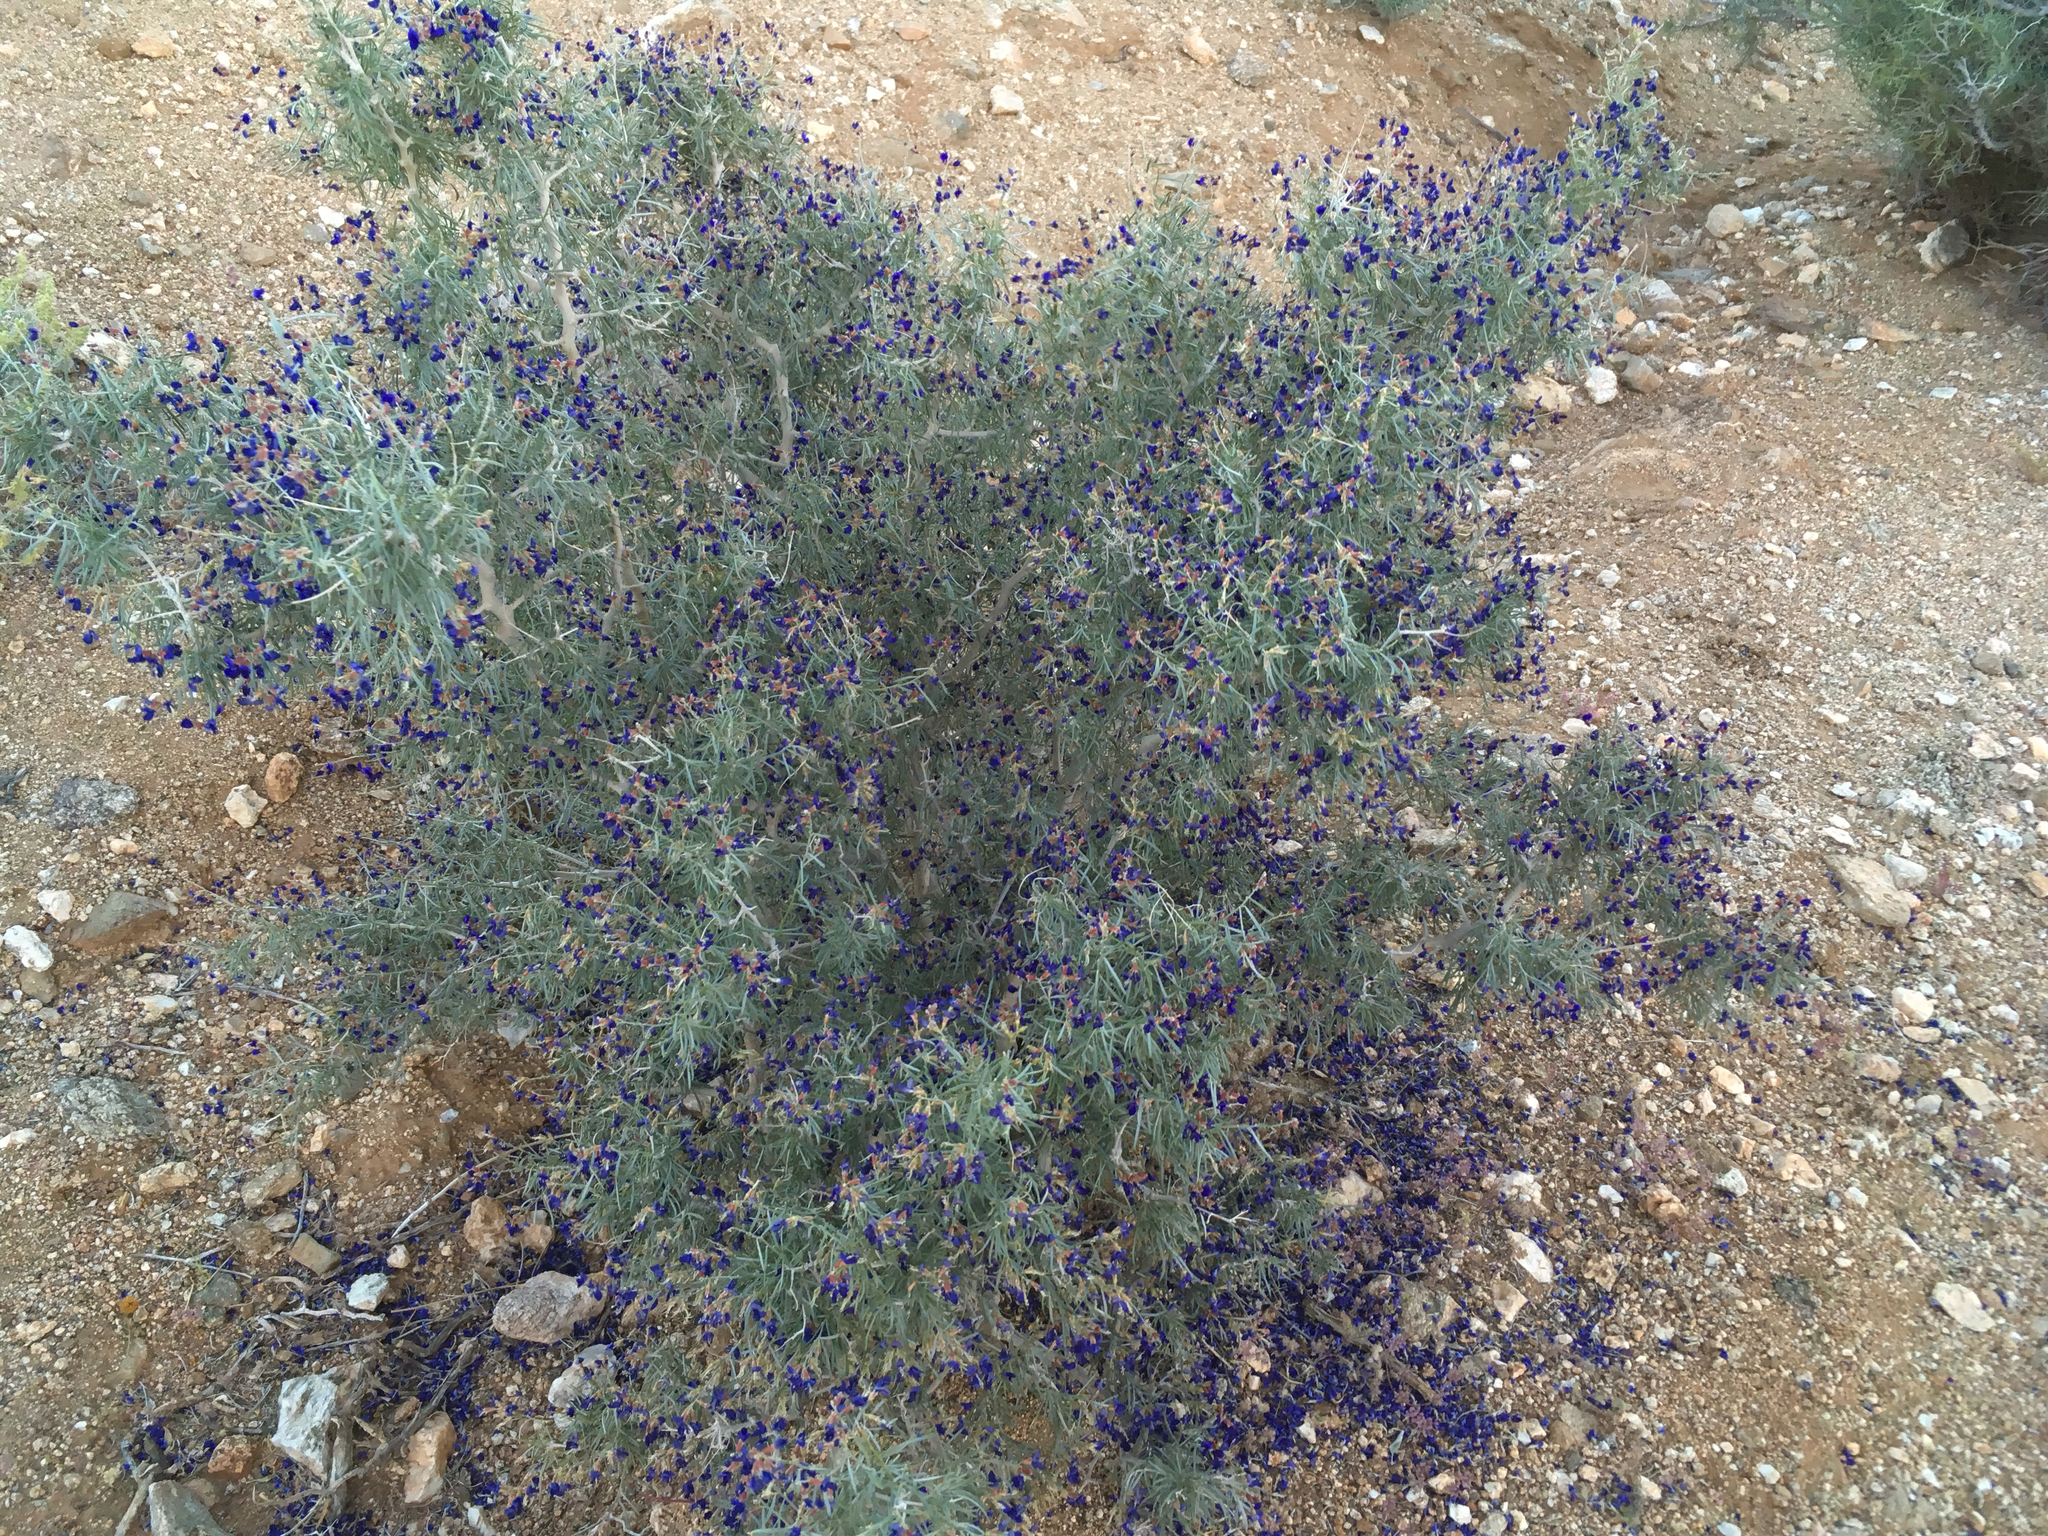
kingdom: Plantae
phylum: Tracheophyta
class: Magnoliopsida
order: Fabales
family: Fabaceae
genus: Psorothamnus
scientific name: Psorothamnus schottii
